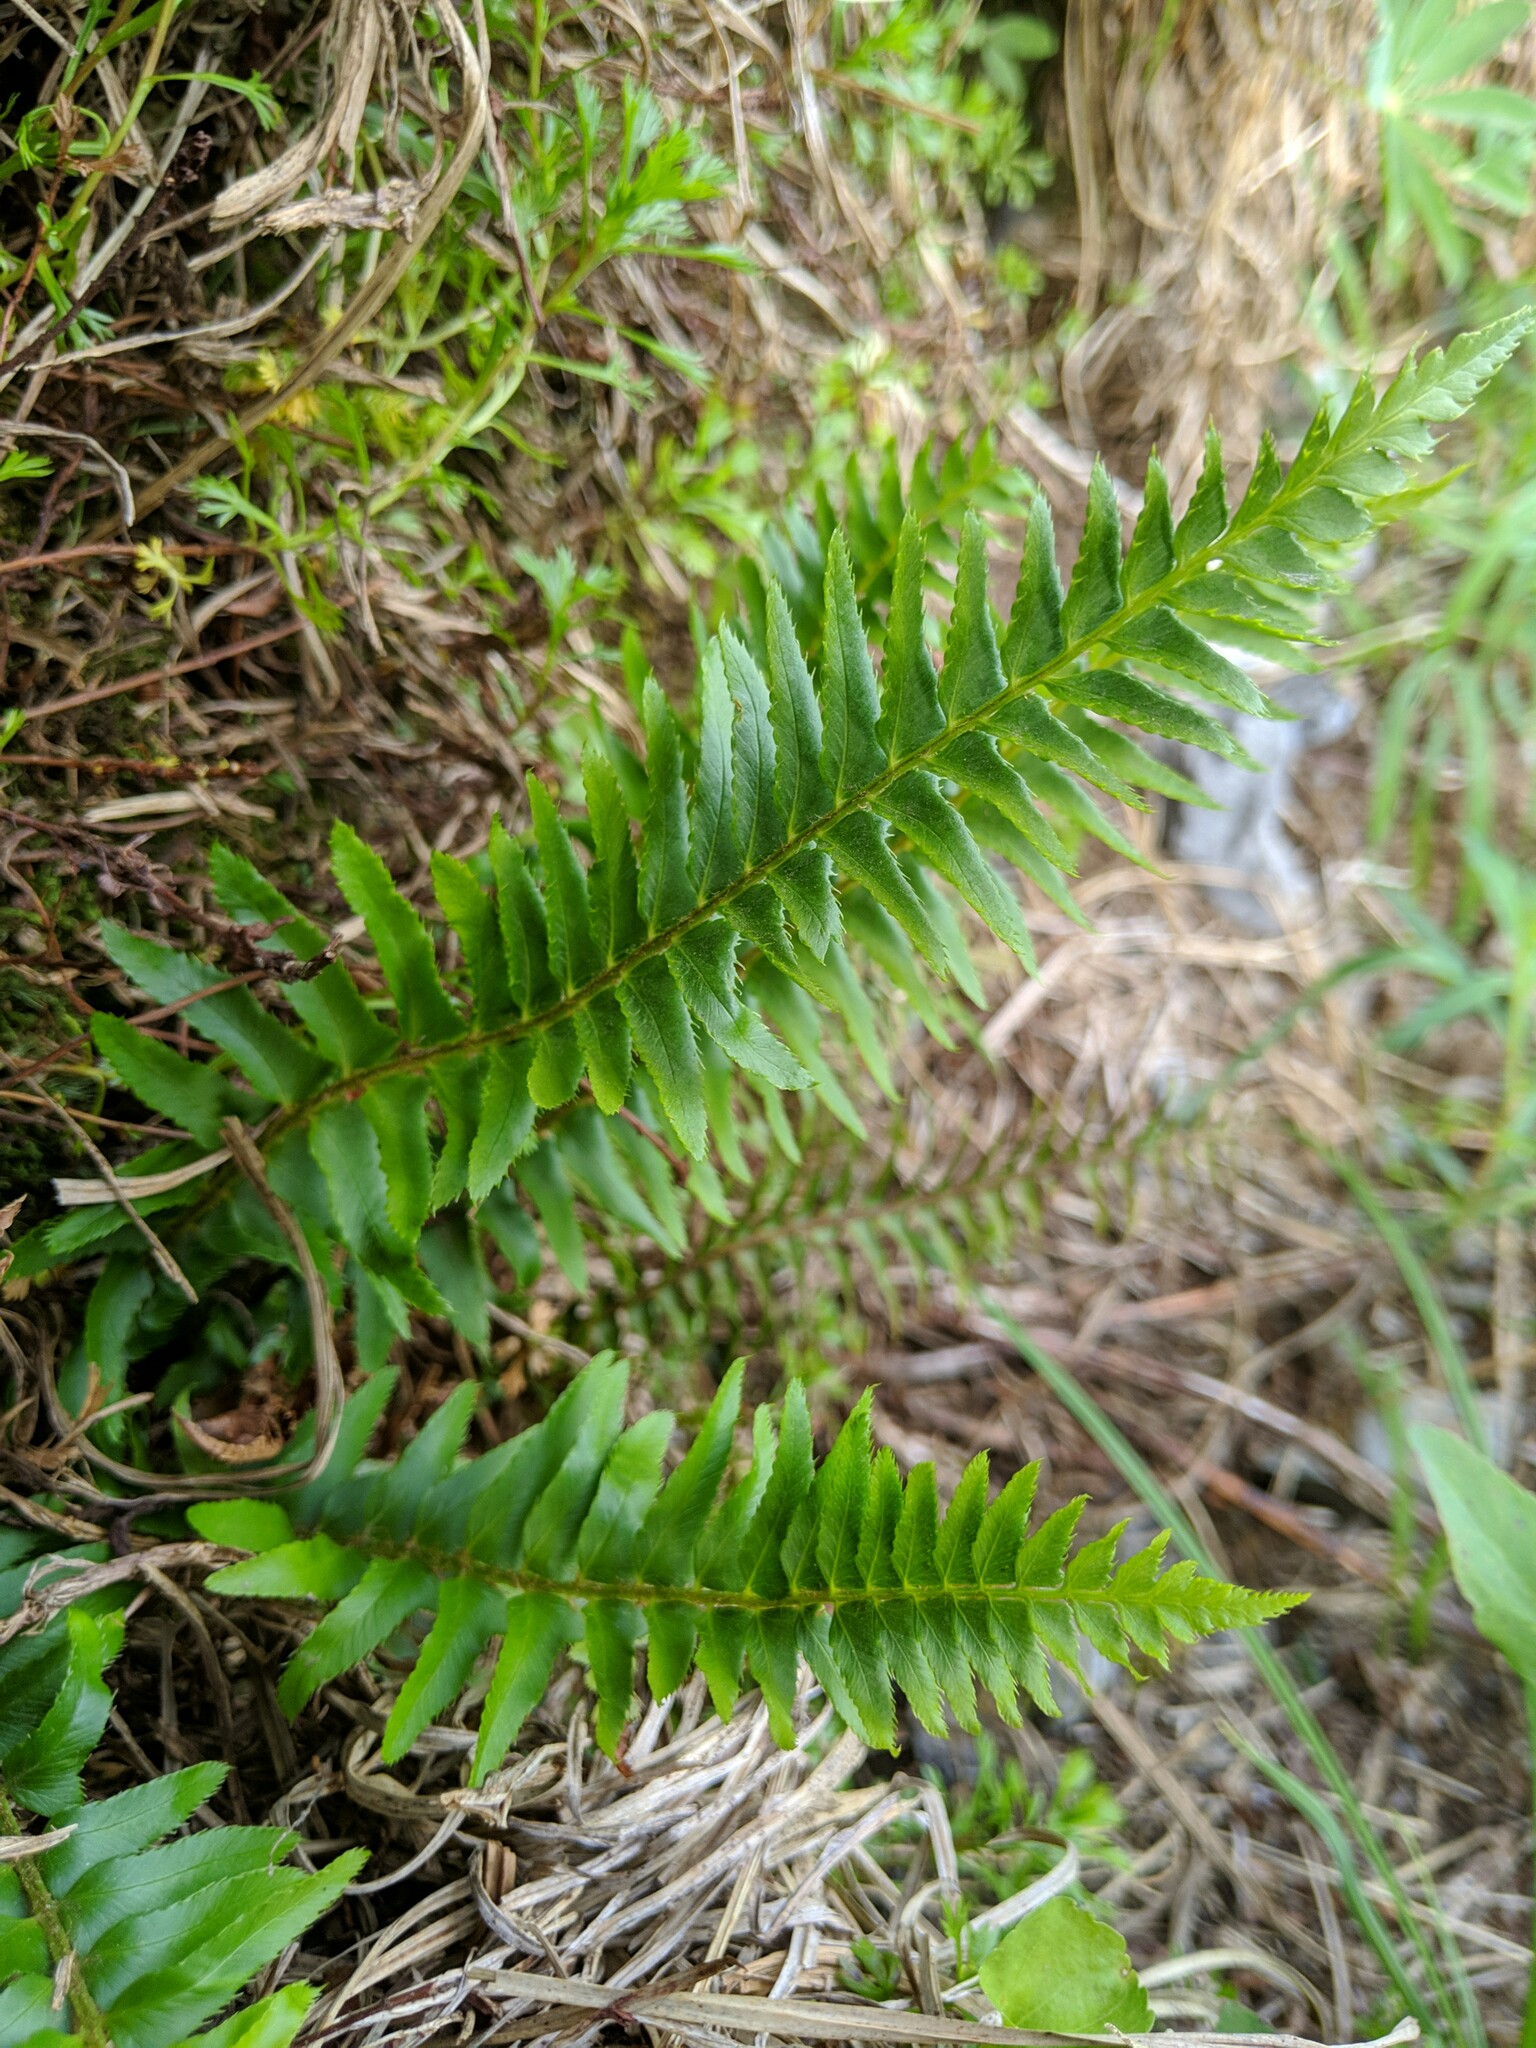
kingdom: Plantae
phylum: Tracheophyta
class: Polypodiopsida
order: Polypodiales
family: Dryopteridaceae
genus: Polystichum
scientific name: Polystichum munitum
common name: Western sword-fern
